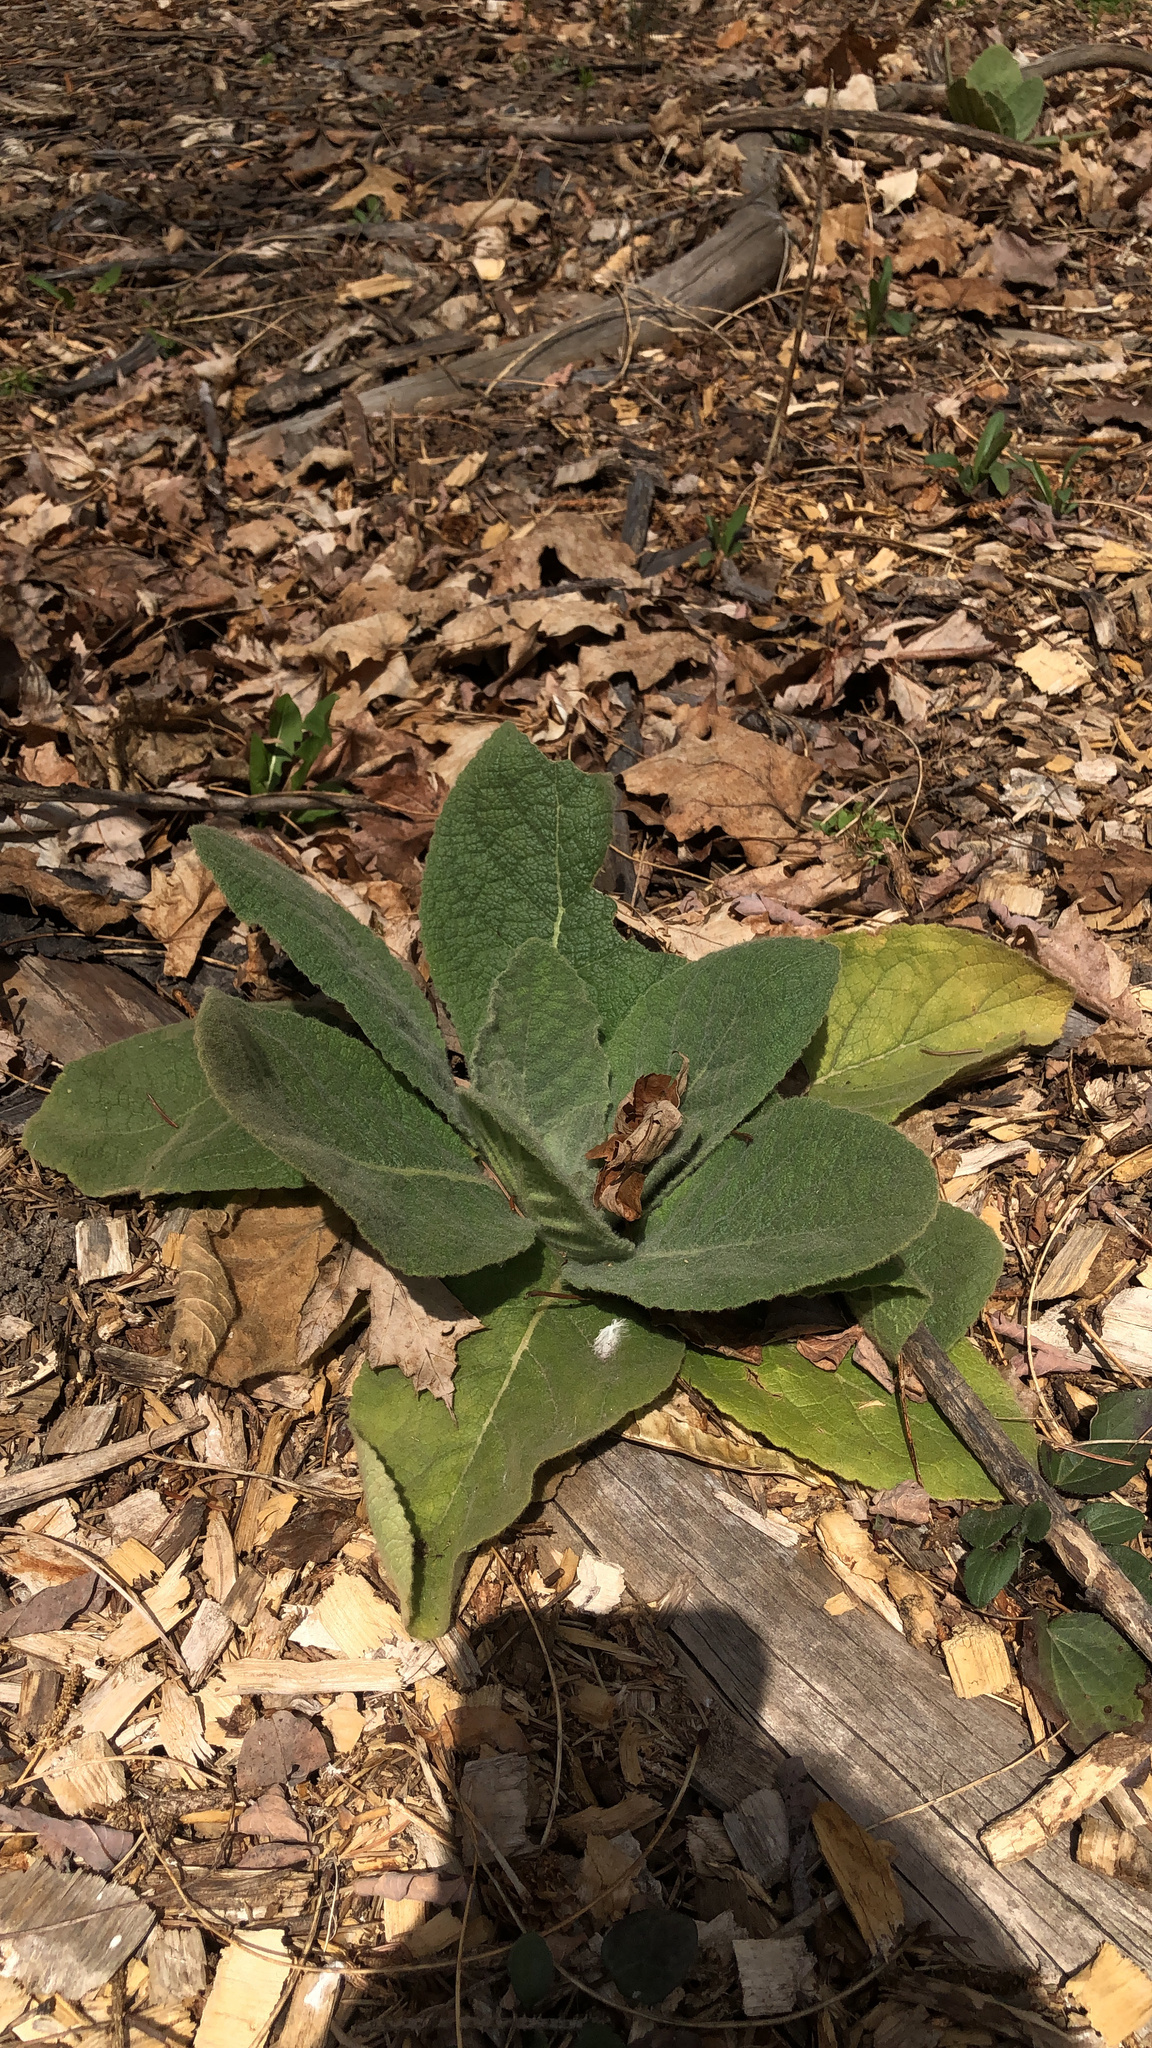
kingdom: Plantae
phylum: Tracheophyta
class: Magnoliopsida
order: Lamiales
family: Scrophulariaceae
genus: Verbascum
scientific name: Verbascum thapsus
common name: Common mullein
